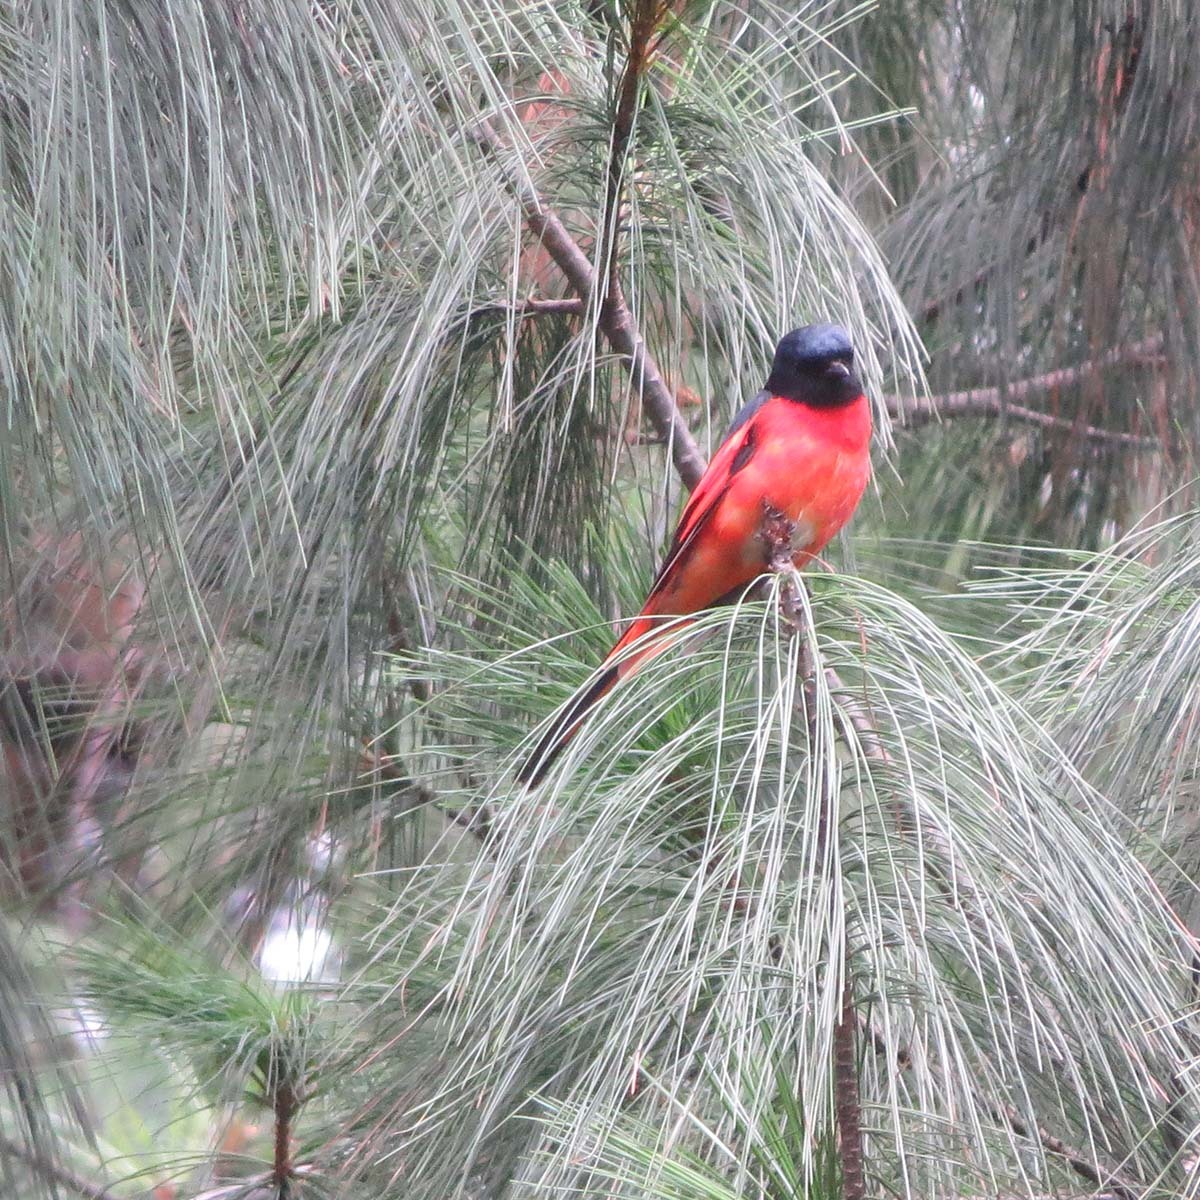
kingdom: Animalia
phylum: Chordata
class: Aves
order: Passeriformes
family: Campephagidae
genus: Pericrocotus
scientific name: Pericrocotus ethologus
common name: Long-tailed minivet
